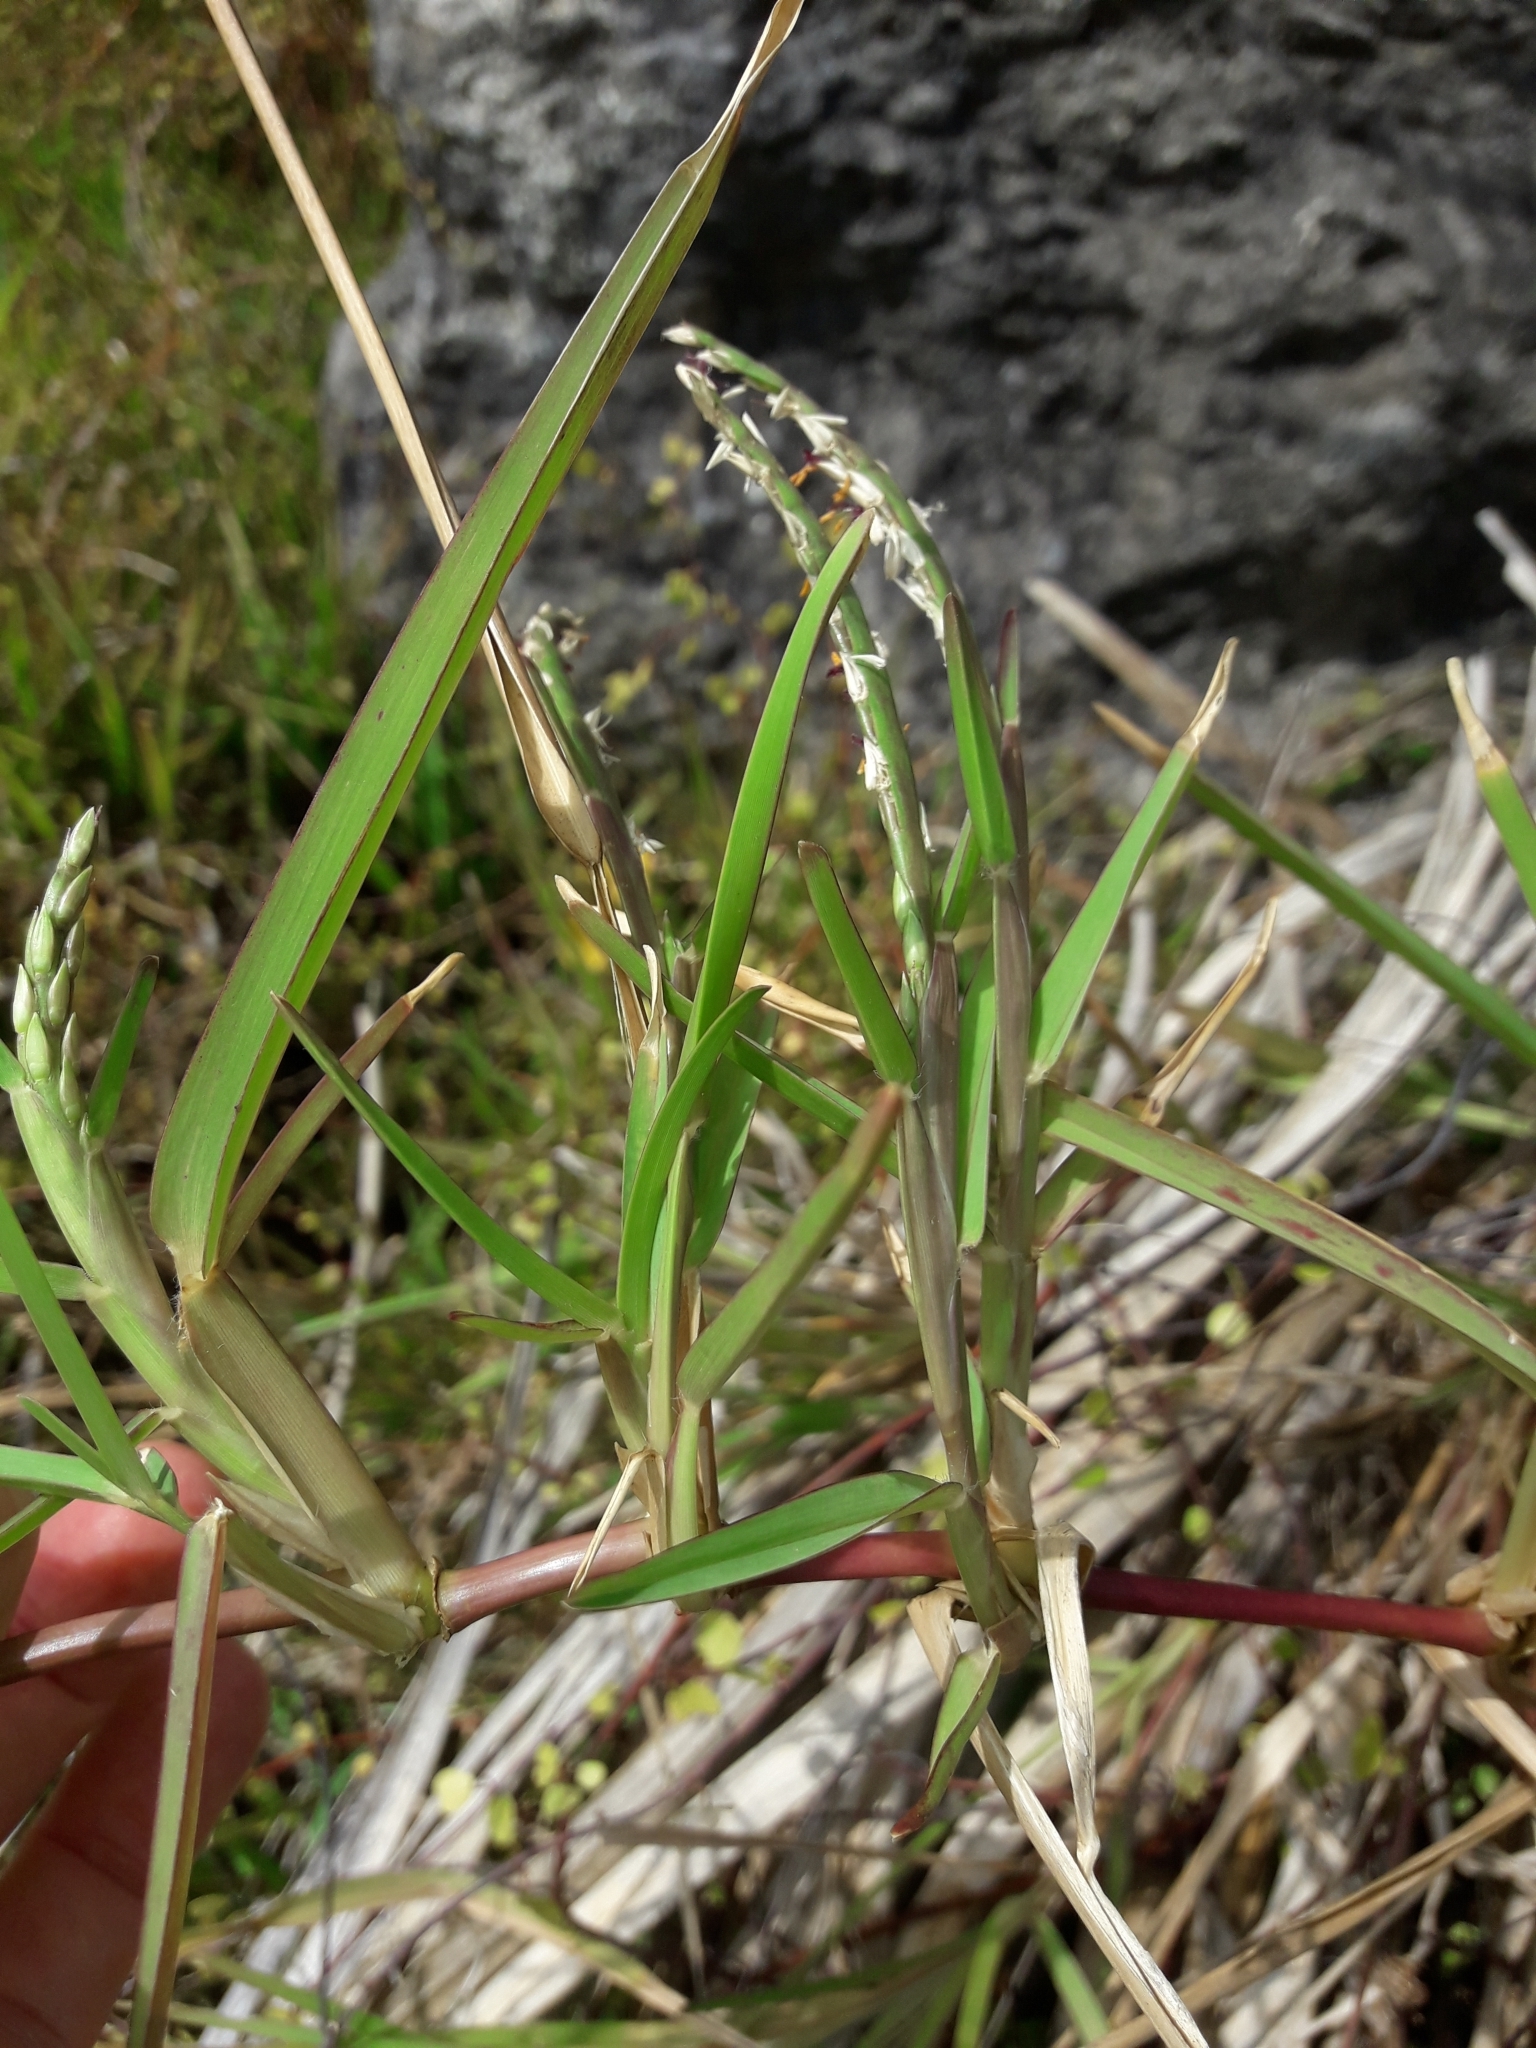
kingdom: Plantae
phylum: Tracheophyta
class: Liliopsida
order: Poales
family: Poaceae
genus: Stenotaphrum
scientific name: Stenotaphrum secundatum
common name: St. augustine grass
